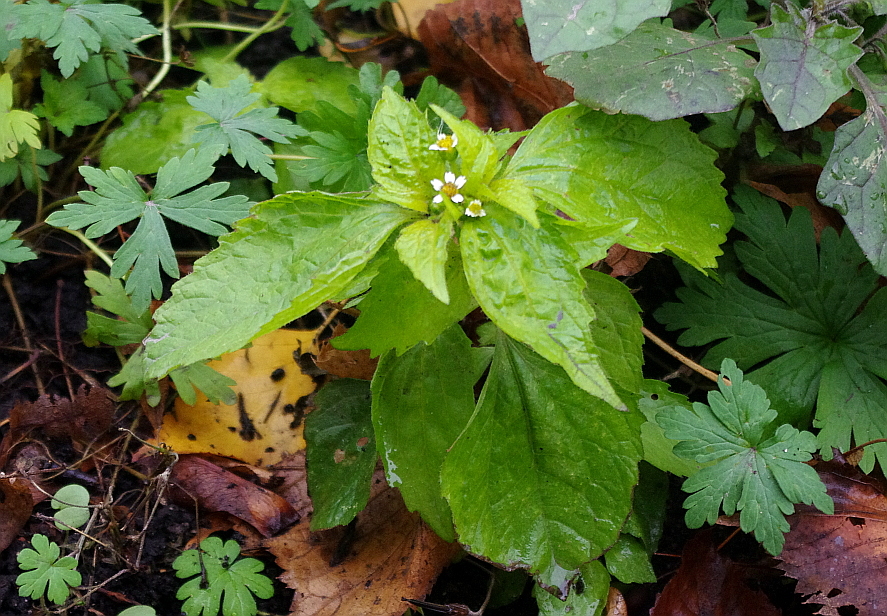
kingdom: Plantae
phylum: Tracheophyta
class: Magnoliopsida
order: Asterales
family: Asteraceae
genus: Galinsoga
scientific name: Galinsoga quadriradiata
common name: Shaggy soldier
